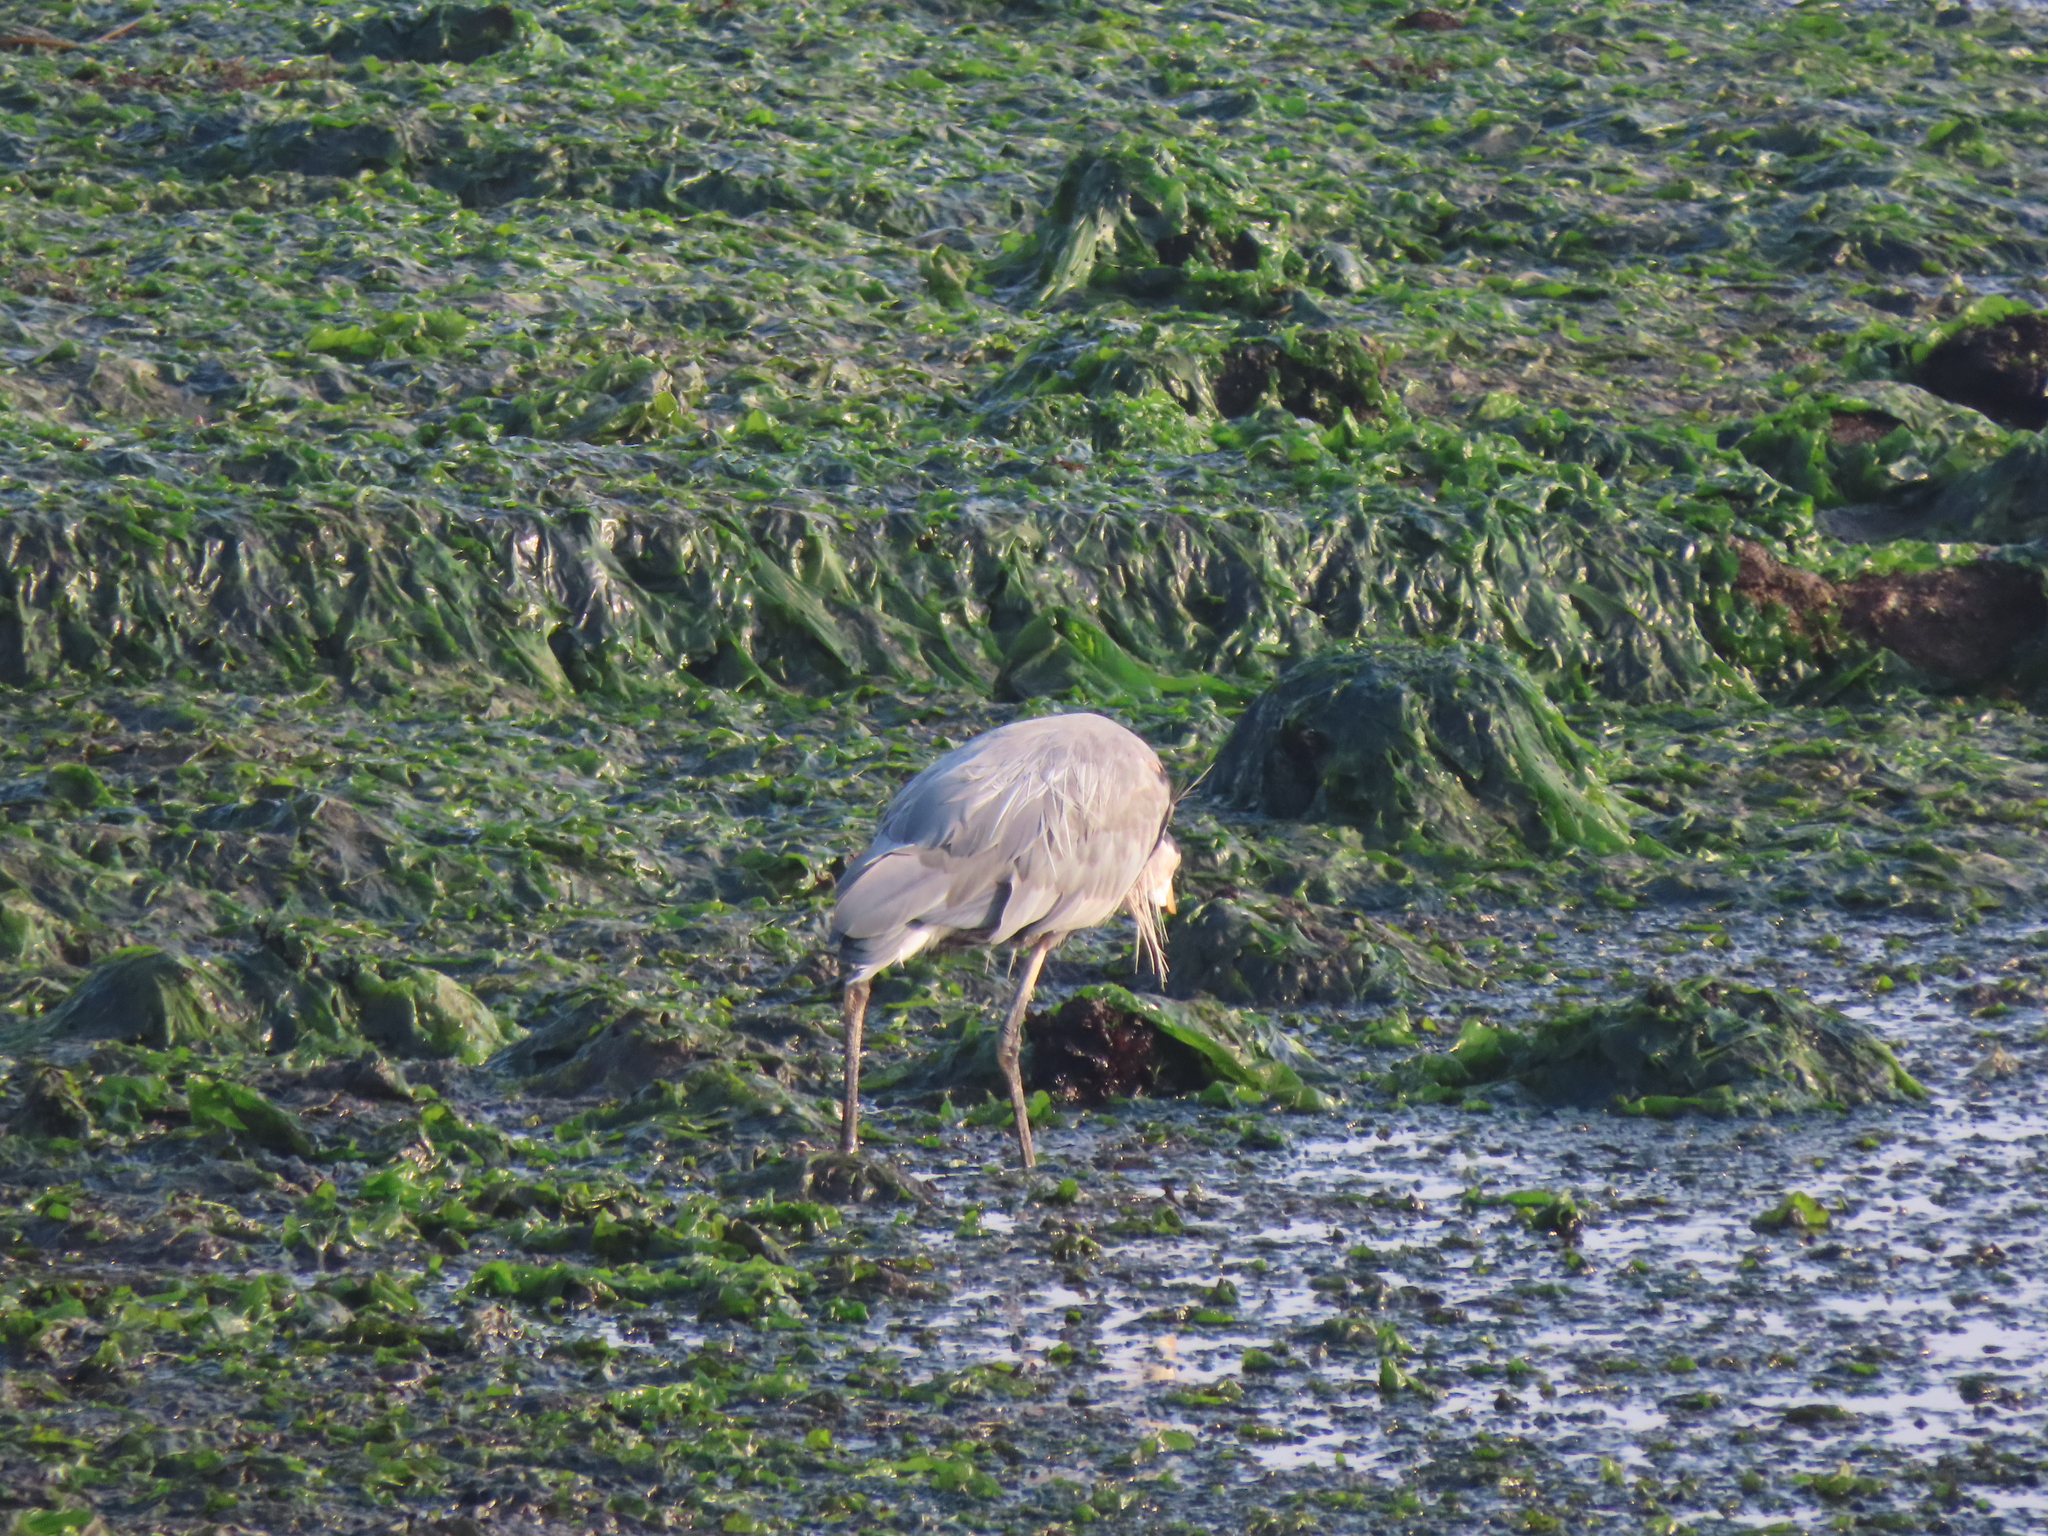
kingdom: Animalia
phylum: Chordata
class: Aves
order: Pelecaniformes
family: Ardeidae
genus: Ardea
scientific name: Ardea herodias
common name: Great blue heron
